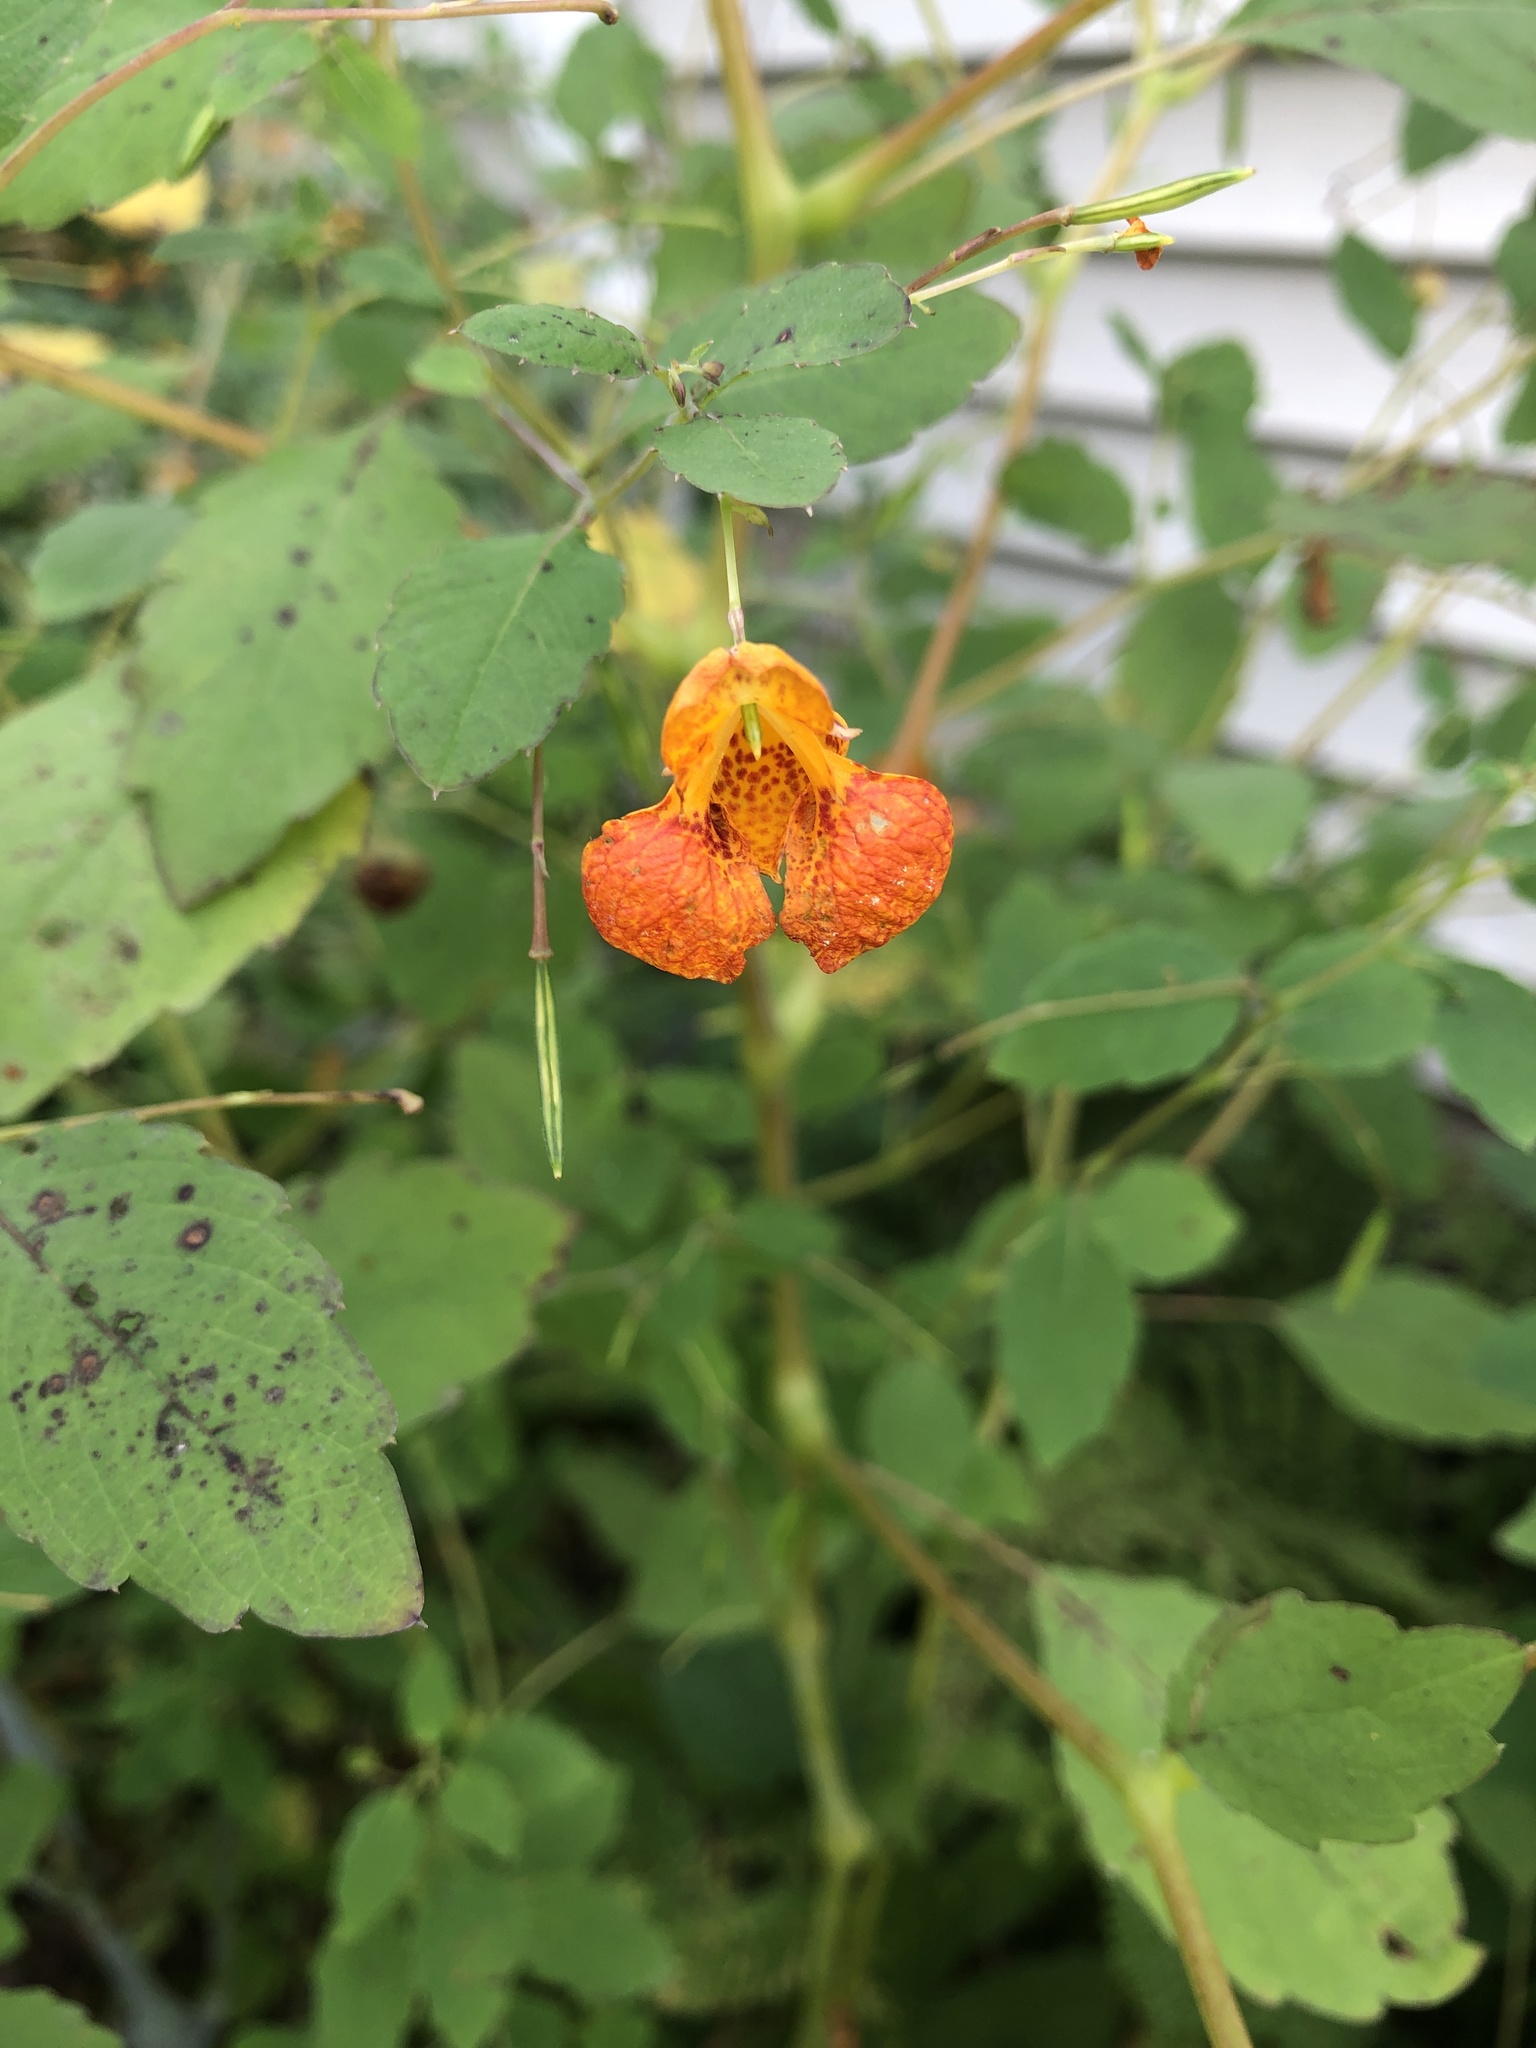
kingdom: Plantae
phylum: Tracheophyta
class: Magnoliopsida
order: Ericales
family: Balsaminaceae
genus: Impatiens
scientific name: Impatiens capensis
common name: Orange balsam
